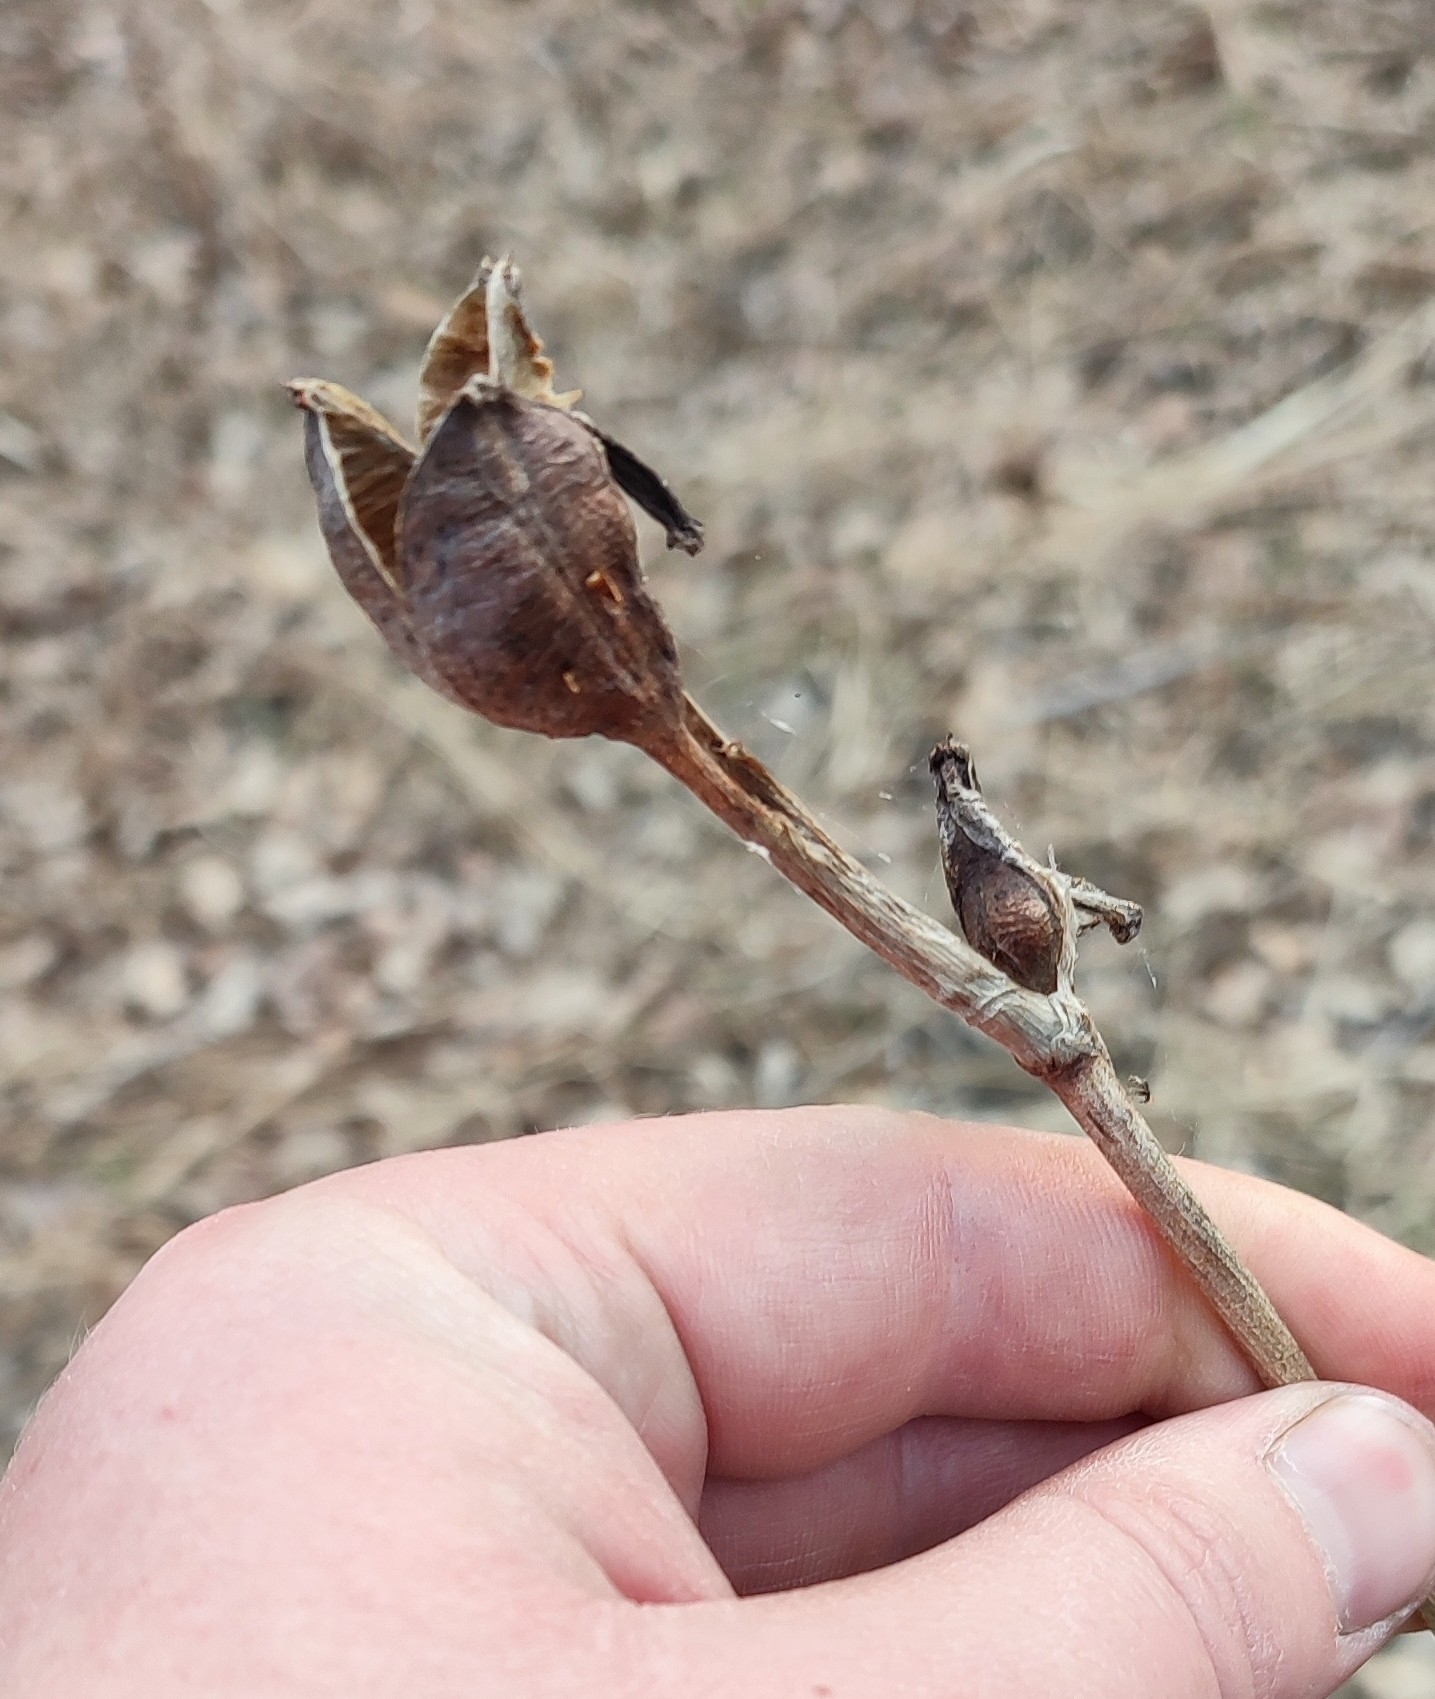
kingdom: Plantae
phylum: Tracheophyta
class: Liliopsida
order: Asparagales
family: Iridaceae
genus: Iris
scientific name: Iris sibirica
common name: Siberian iris
